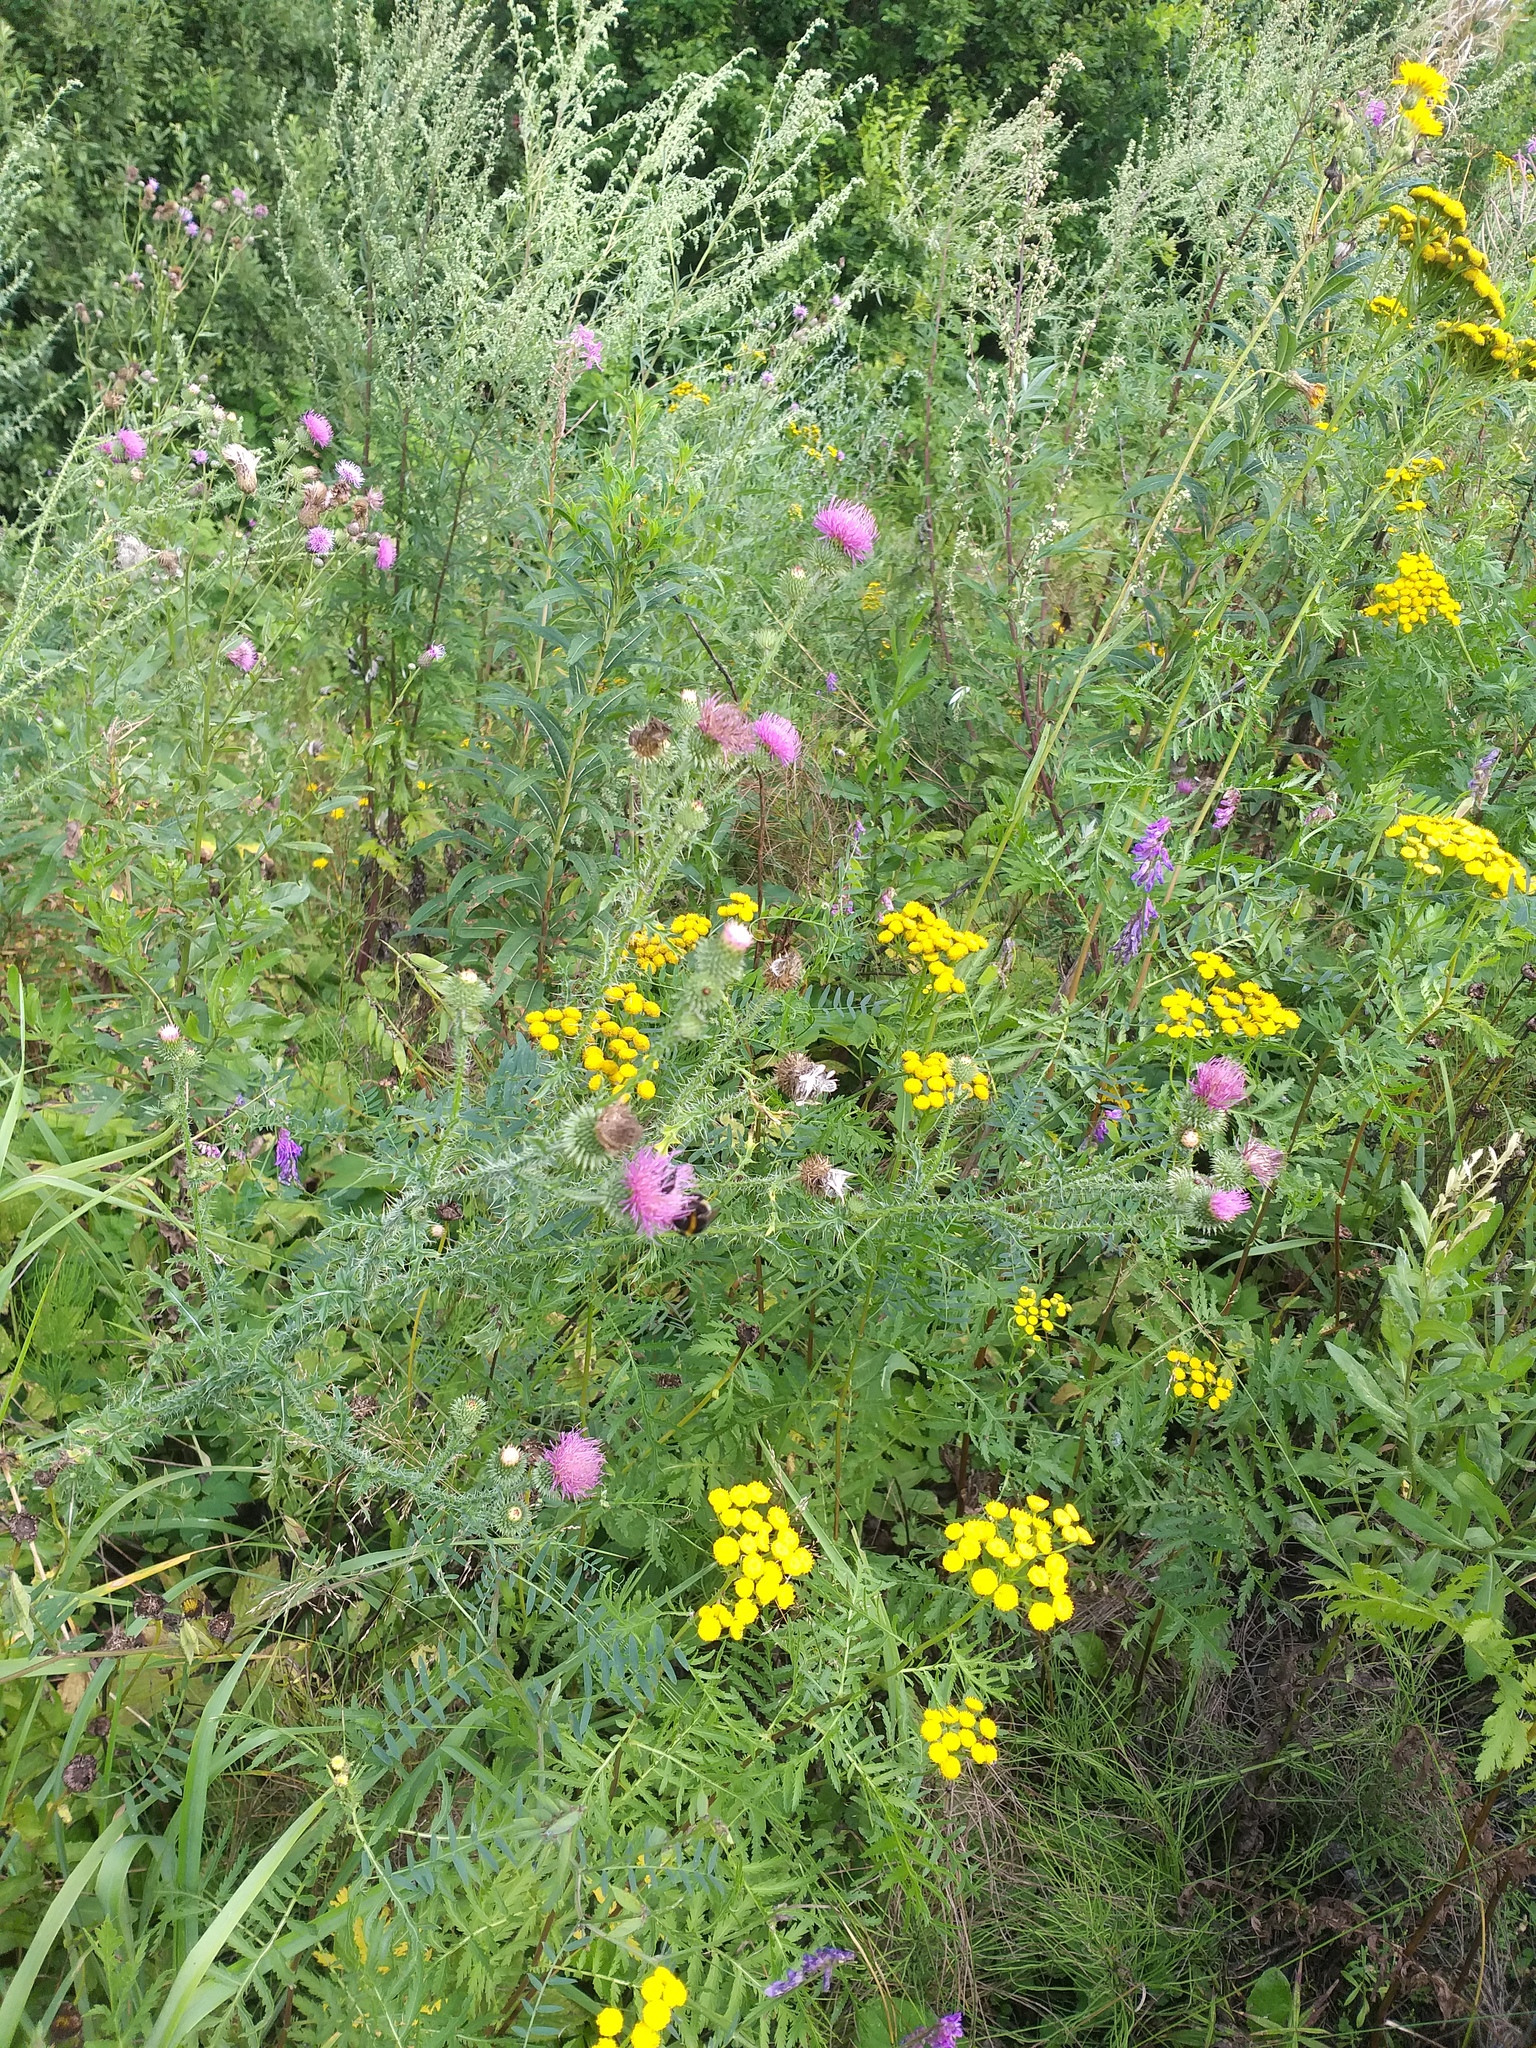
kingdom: Plantae
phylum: Tracheophyta
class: Magnoliopsida
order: Asterales
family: Asteraceae
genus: Carduus
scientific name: Carduus acanthoides
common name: Plumeless thistle
